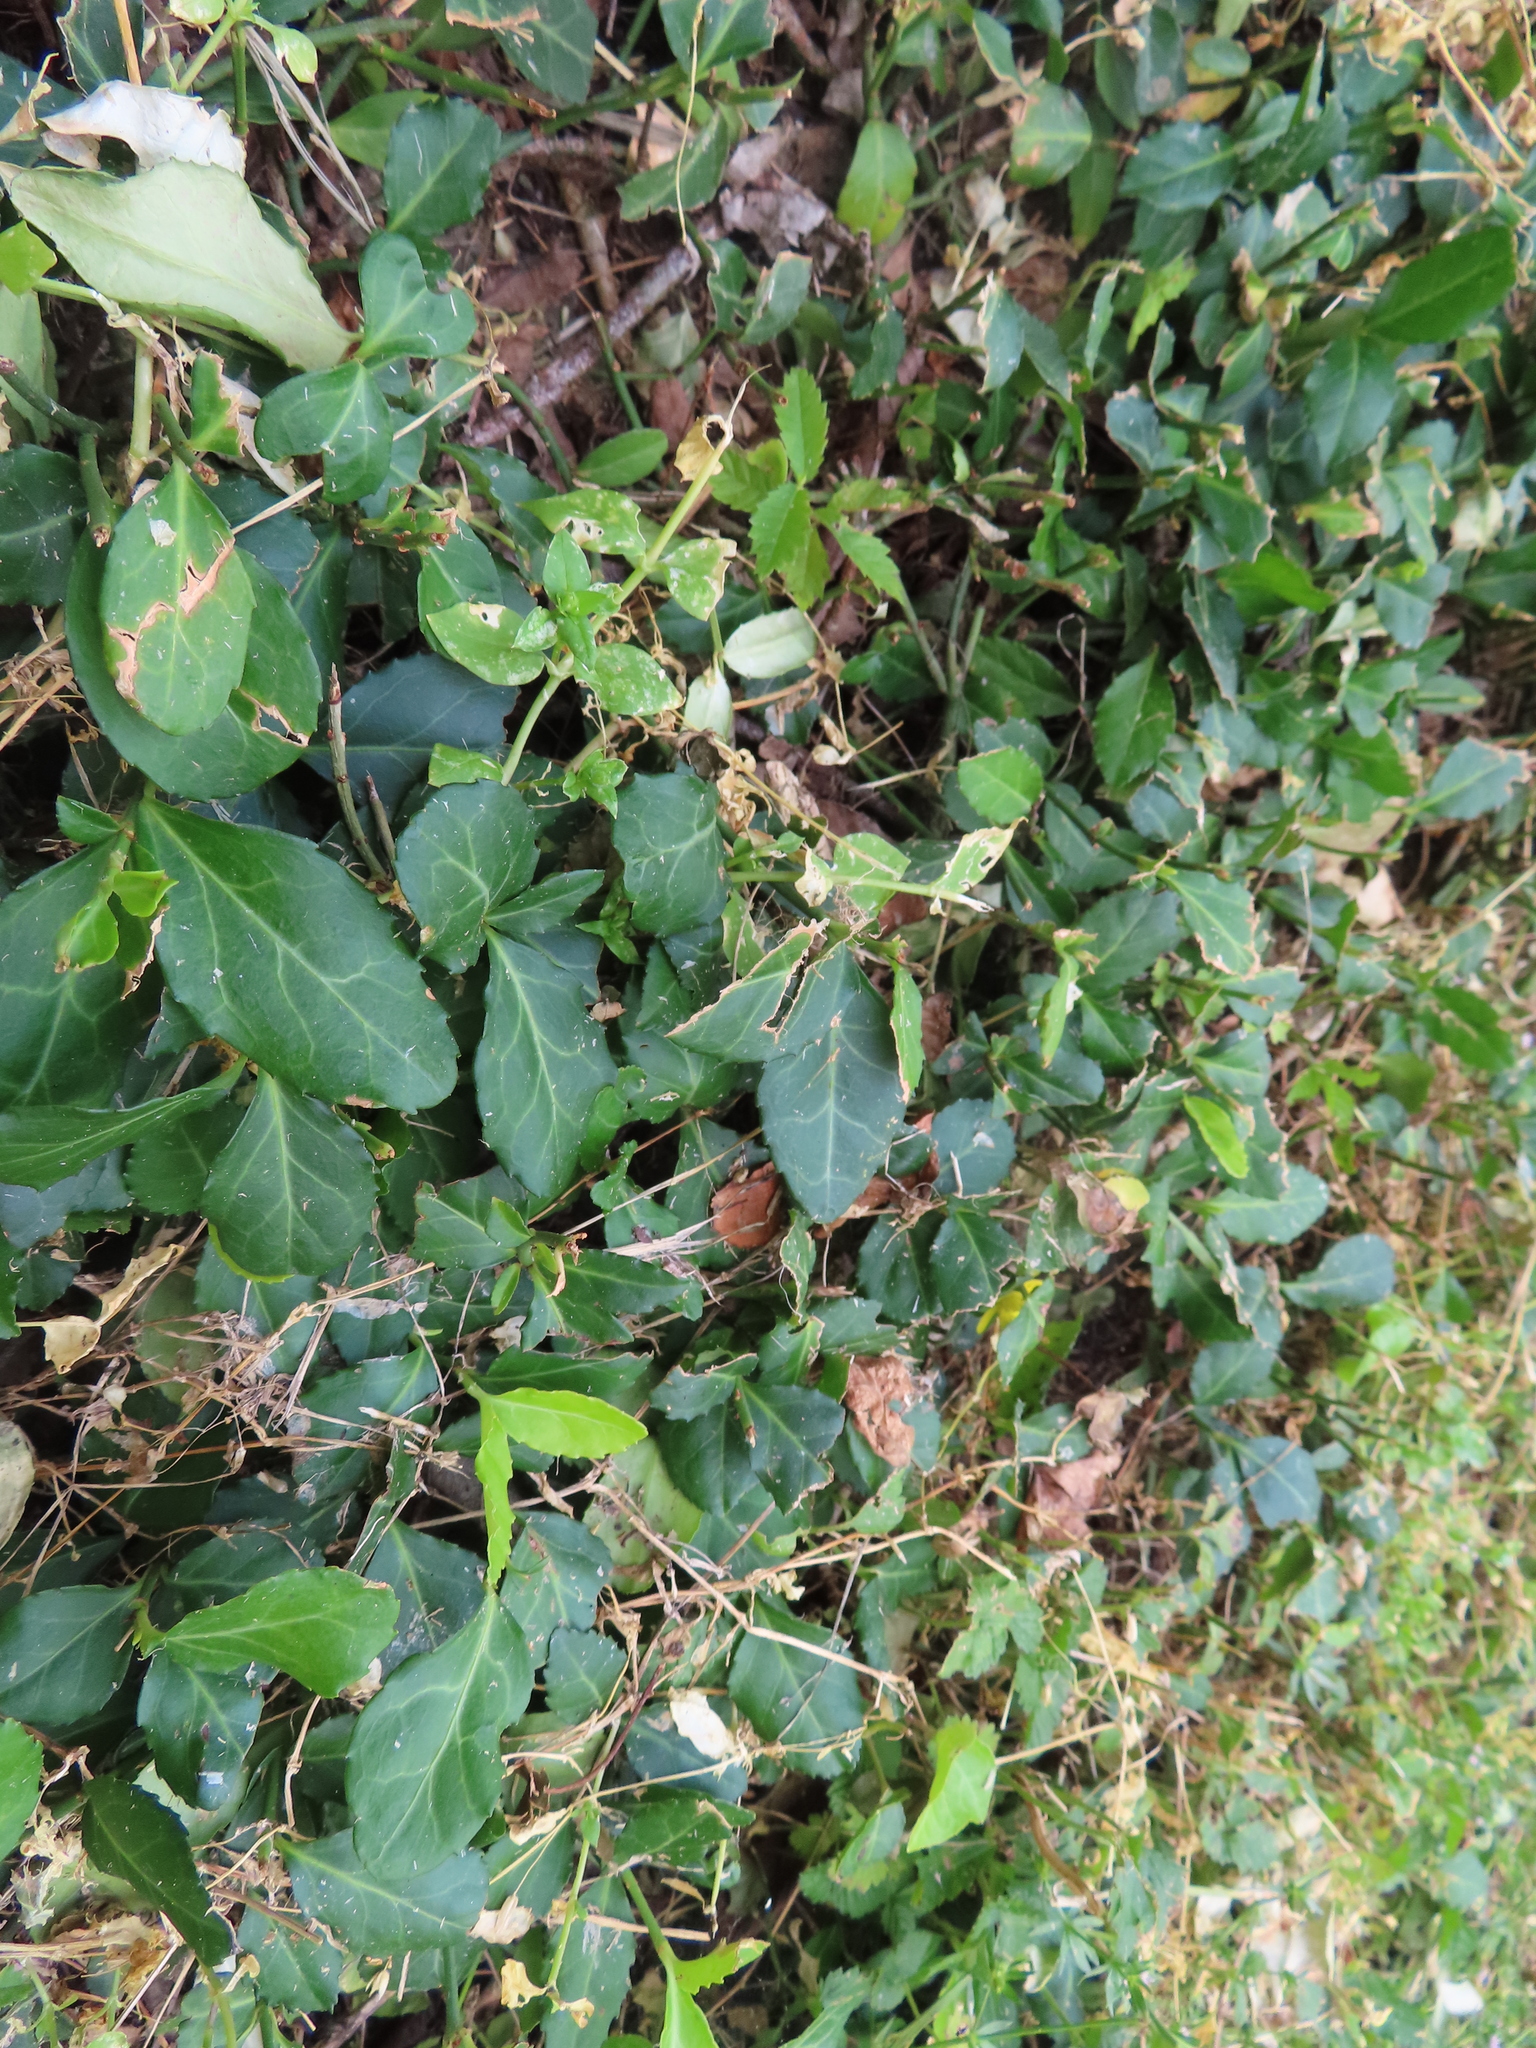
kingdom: Plantae
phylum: Tracheophyta
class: Magnoliopsida
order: Celastrales
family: Celastraceae
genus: Euonymus
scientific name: Euonymus fortunei
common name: Climbing euonymus
